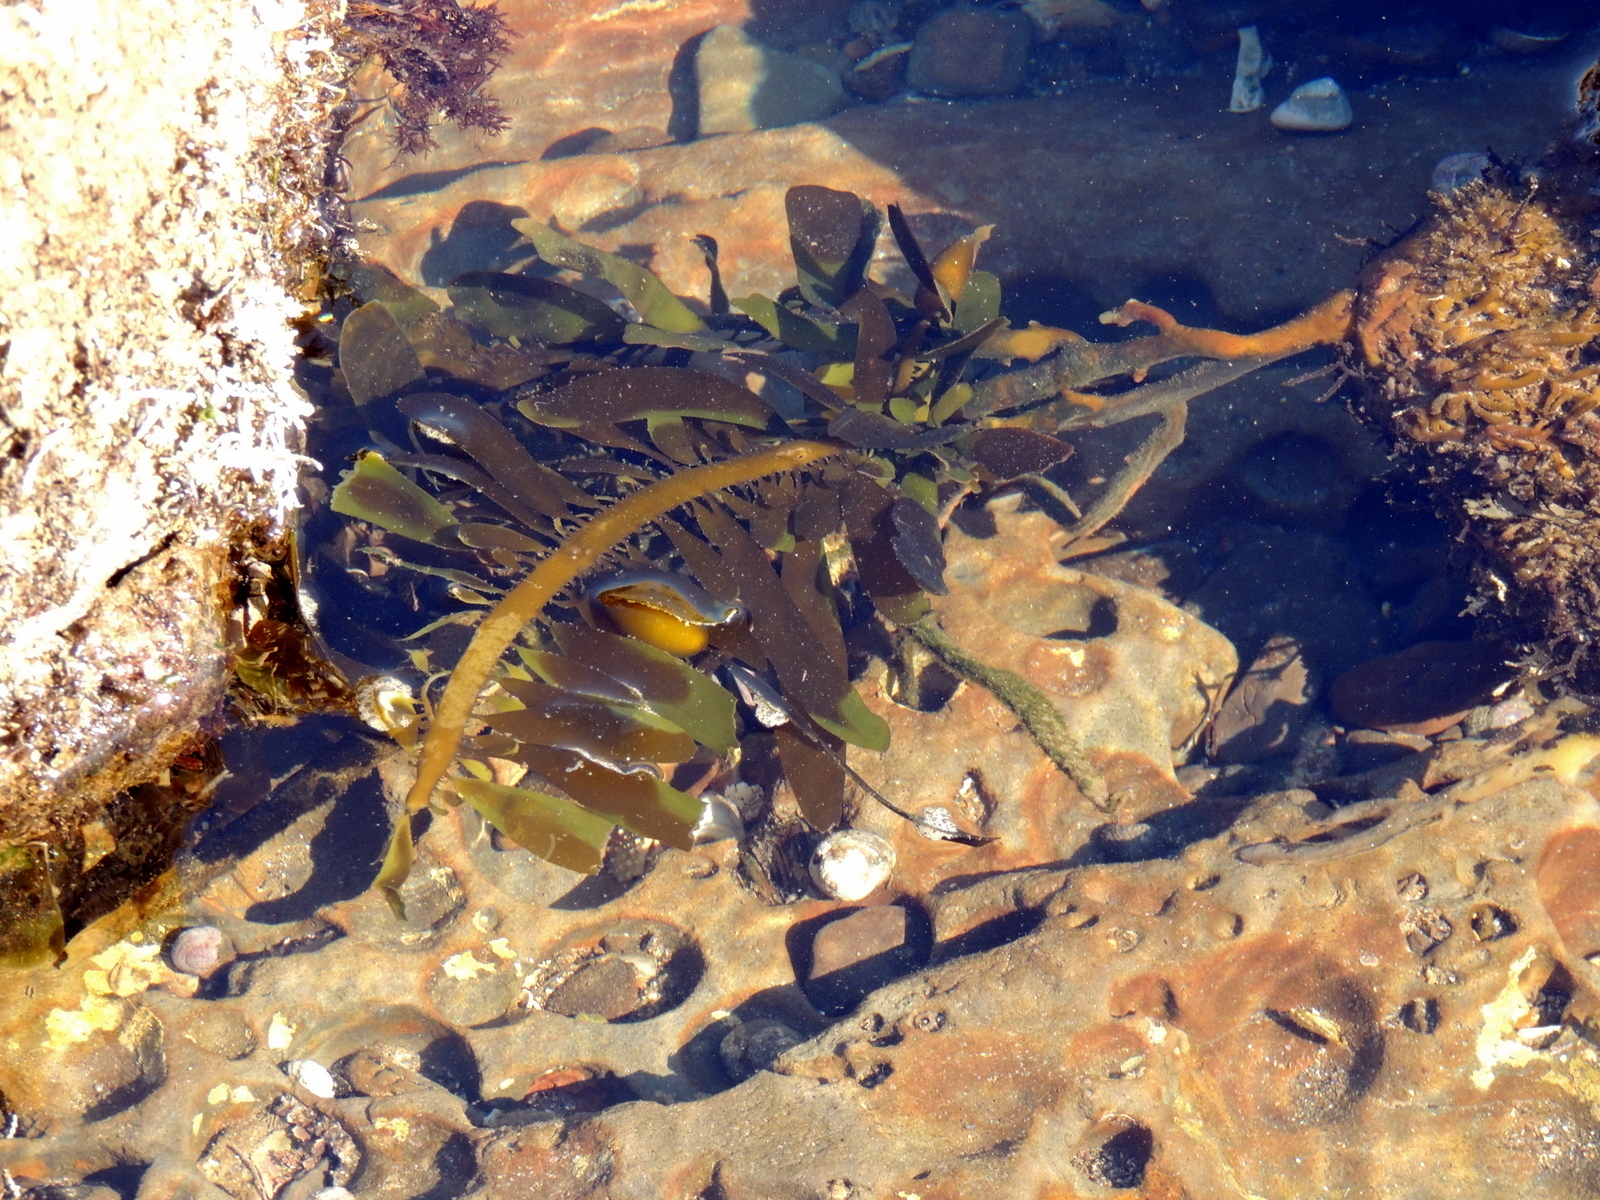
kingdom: Chromista
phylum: Ochrophyta
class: Phaeophyceae
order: Laminariales
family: Lessoniaceae
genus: Egregia
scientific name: Egregia menziesii
